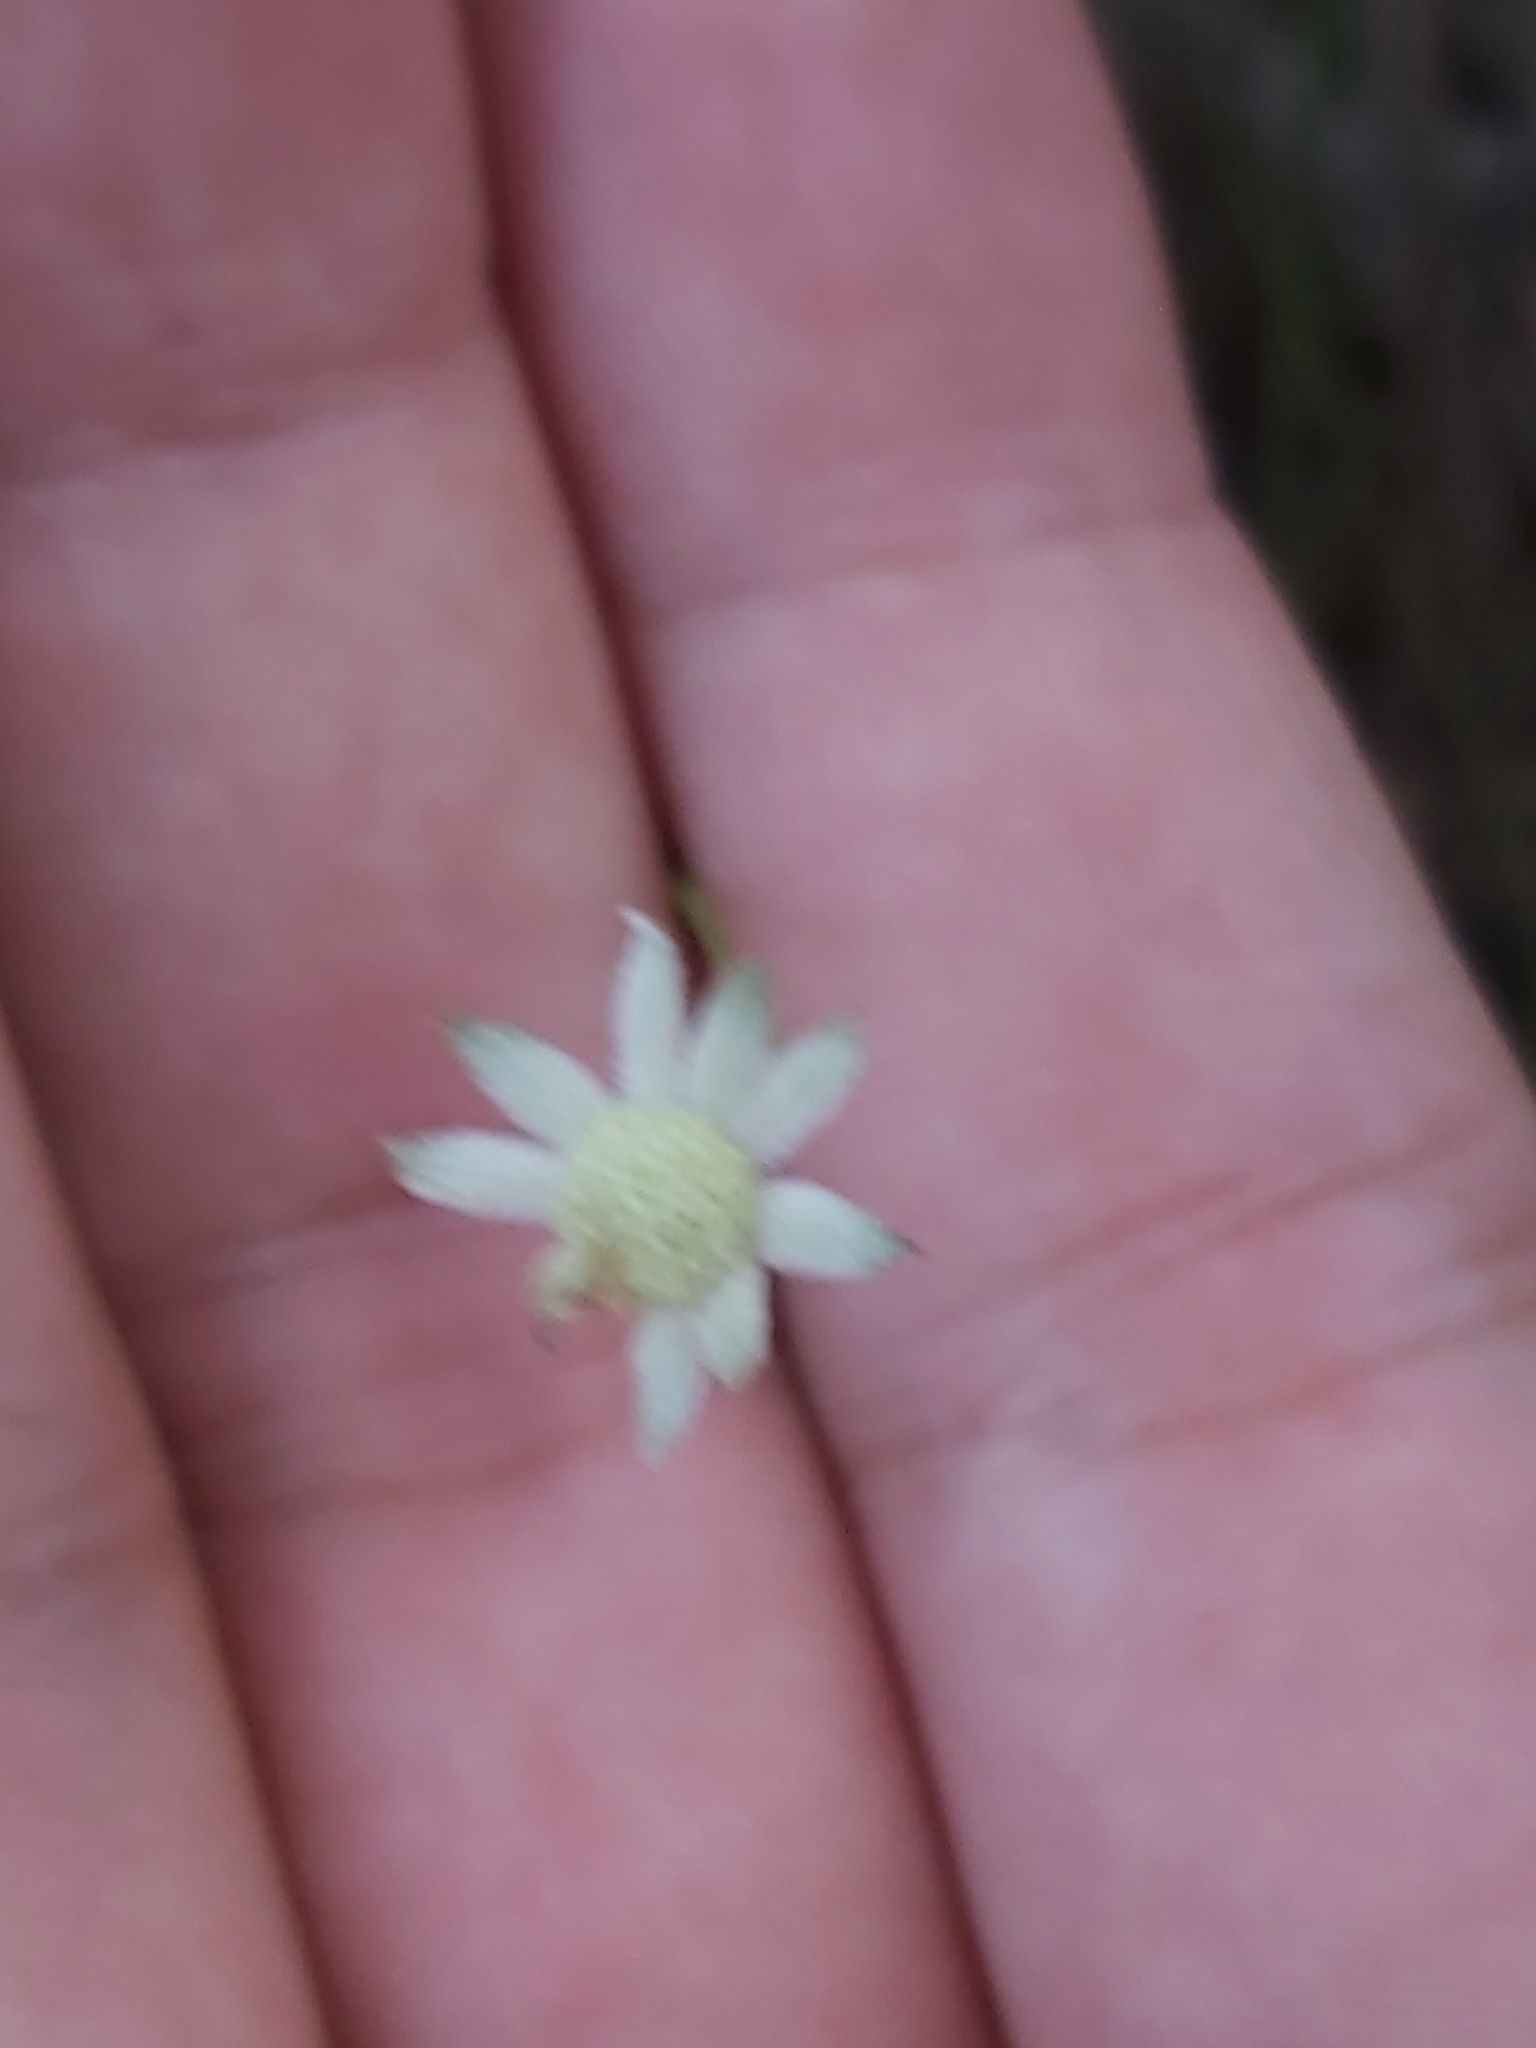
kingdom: Plantae
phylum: Tracheophyta
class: Magnoliopsida
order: Apiales
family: Apiaceae
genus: Actinotus
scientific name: Actinotus minor
